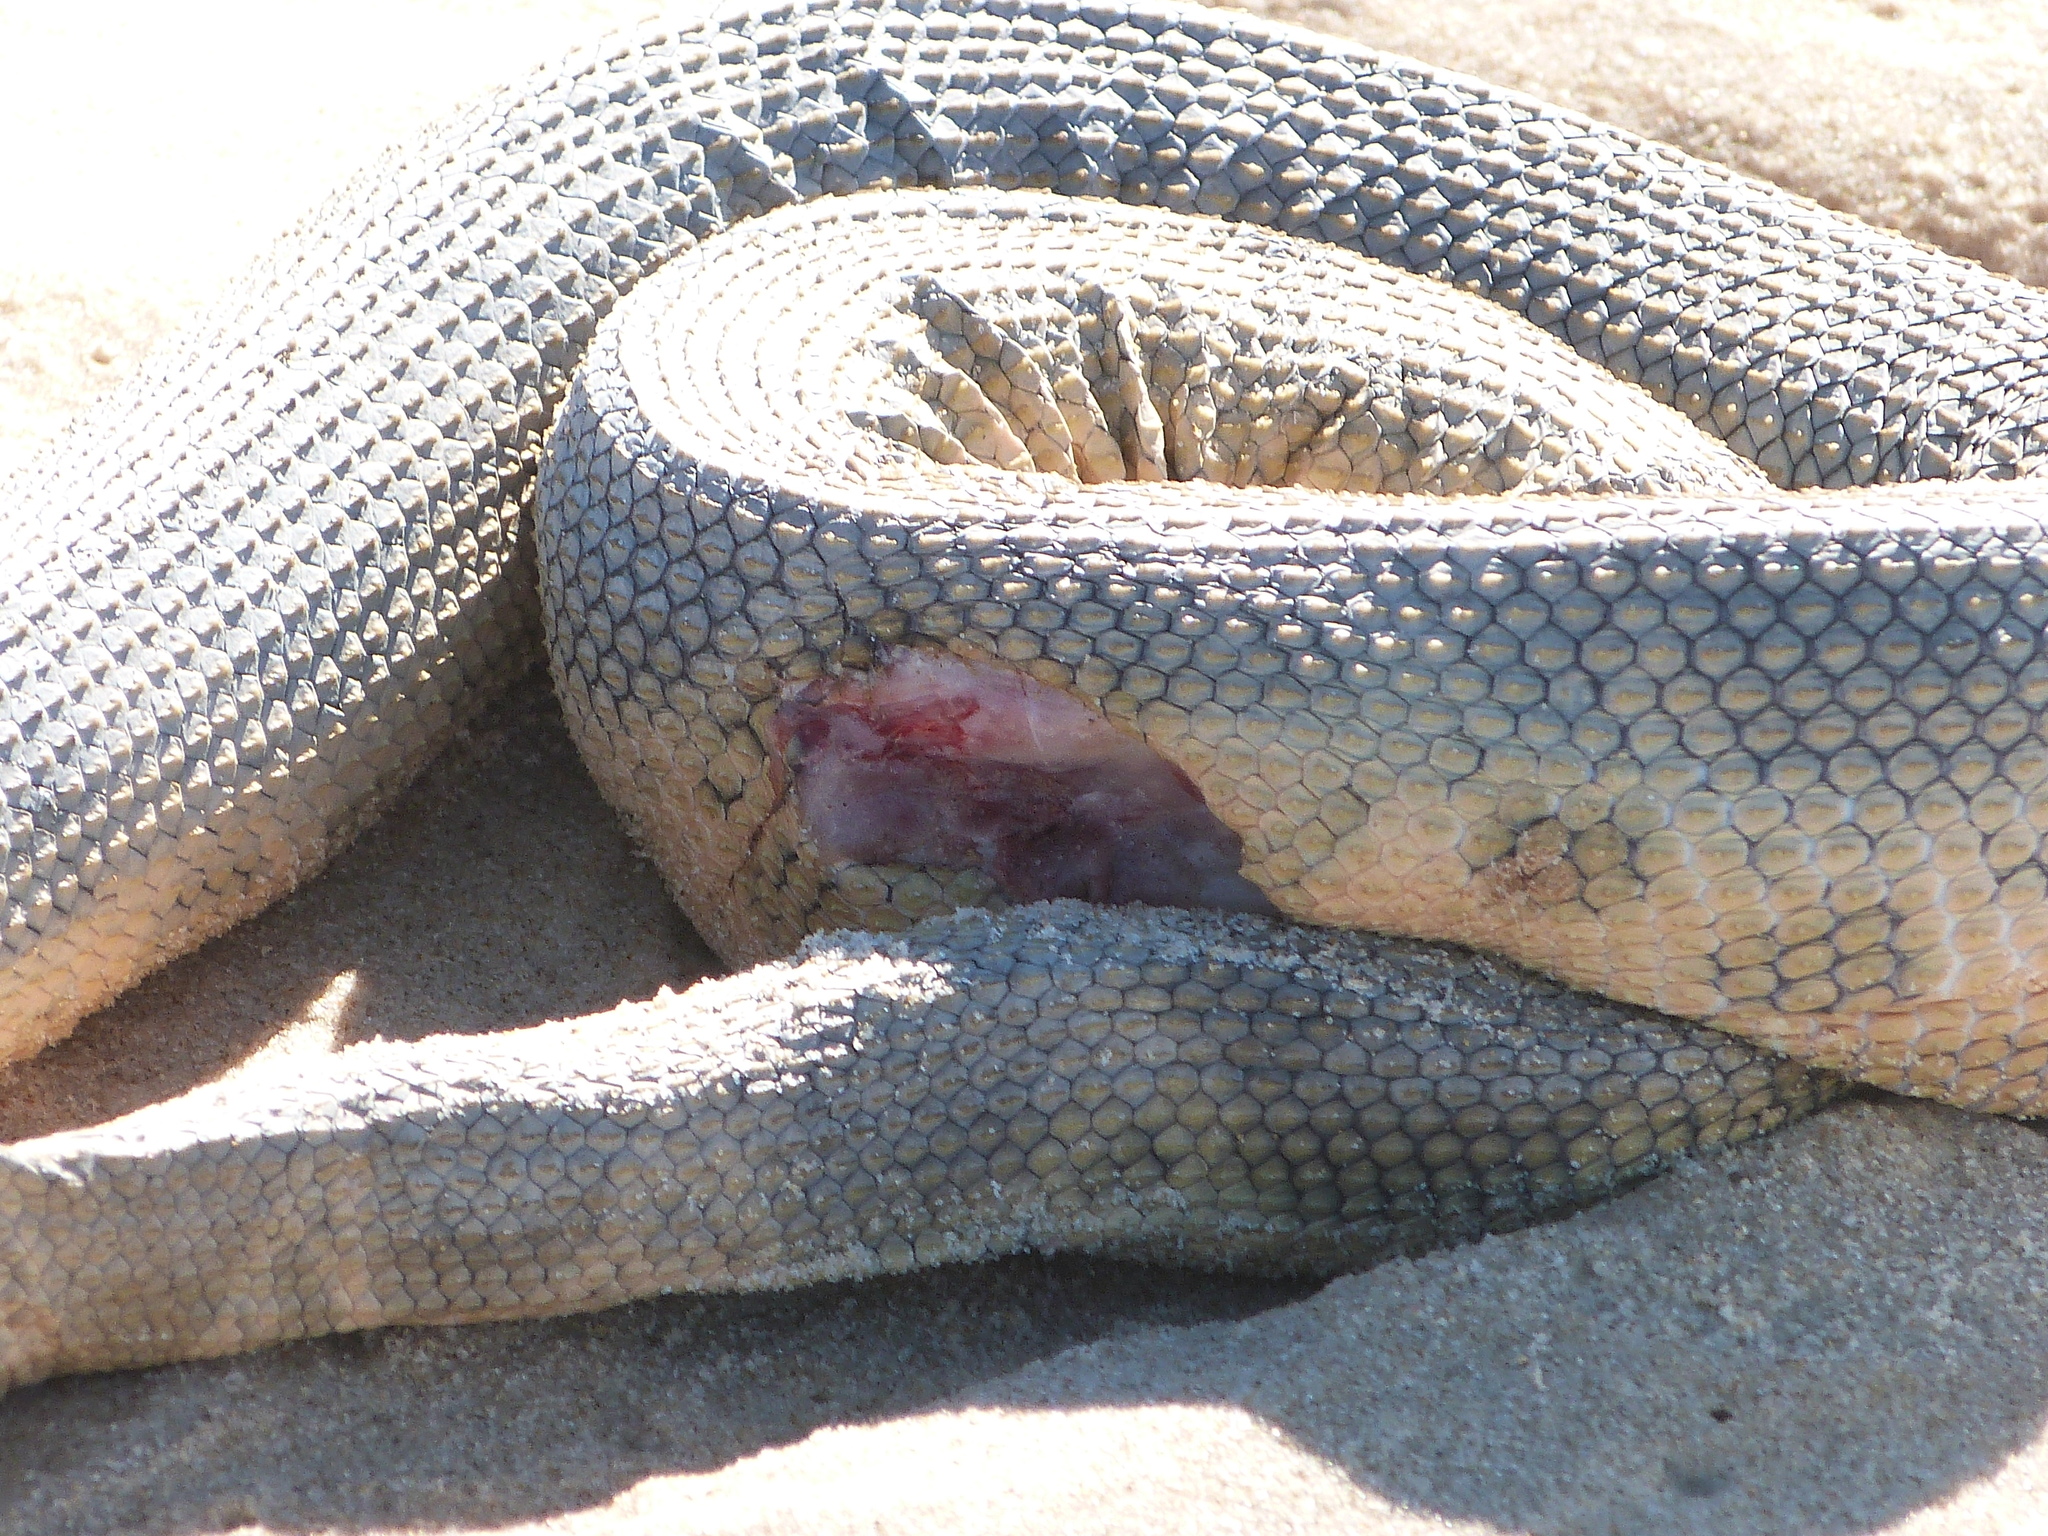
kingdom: Animalia
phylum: Chordata
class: Squamata
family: Elapidae
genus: Hydrophis
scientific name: Hydrophis elegans
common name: Bar-bellied sea snake
